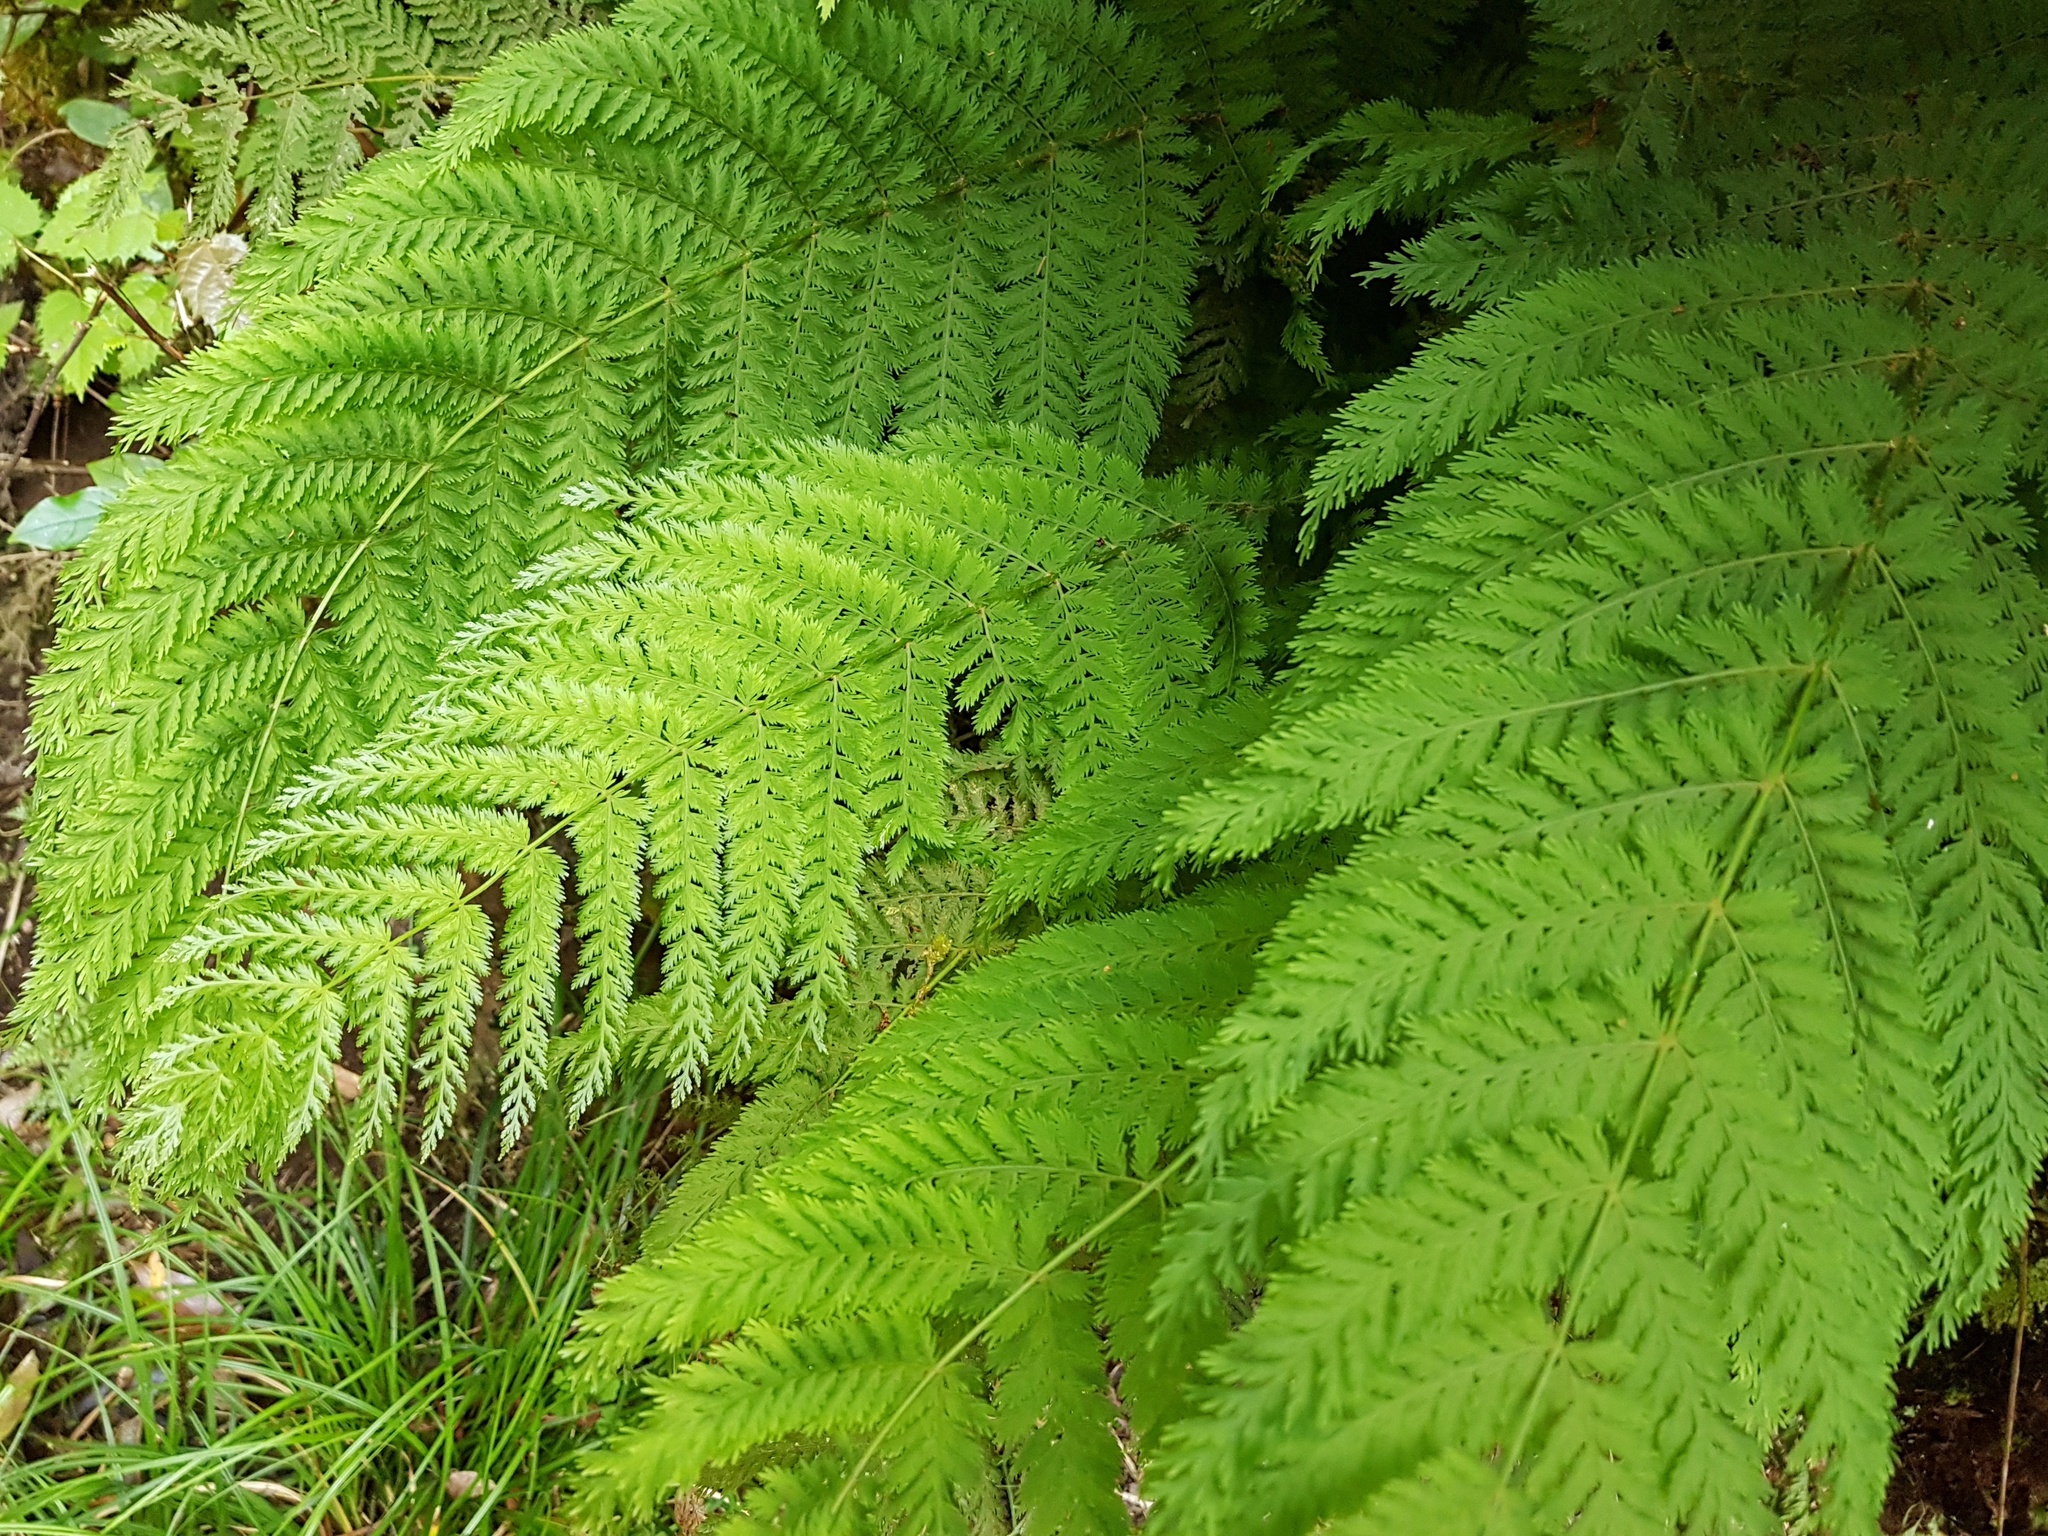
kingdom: Plantae
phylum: Tracheophyta
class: Polypodiopsida
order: Osmundales
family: Osmundaceae
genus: Leptopteris
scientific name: Leptopteris hymenophylloides
